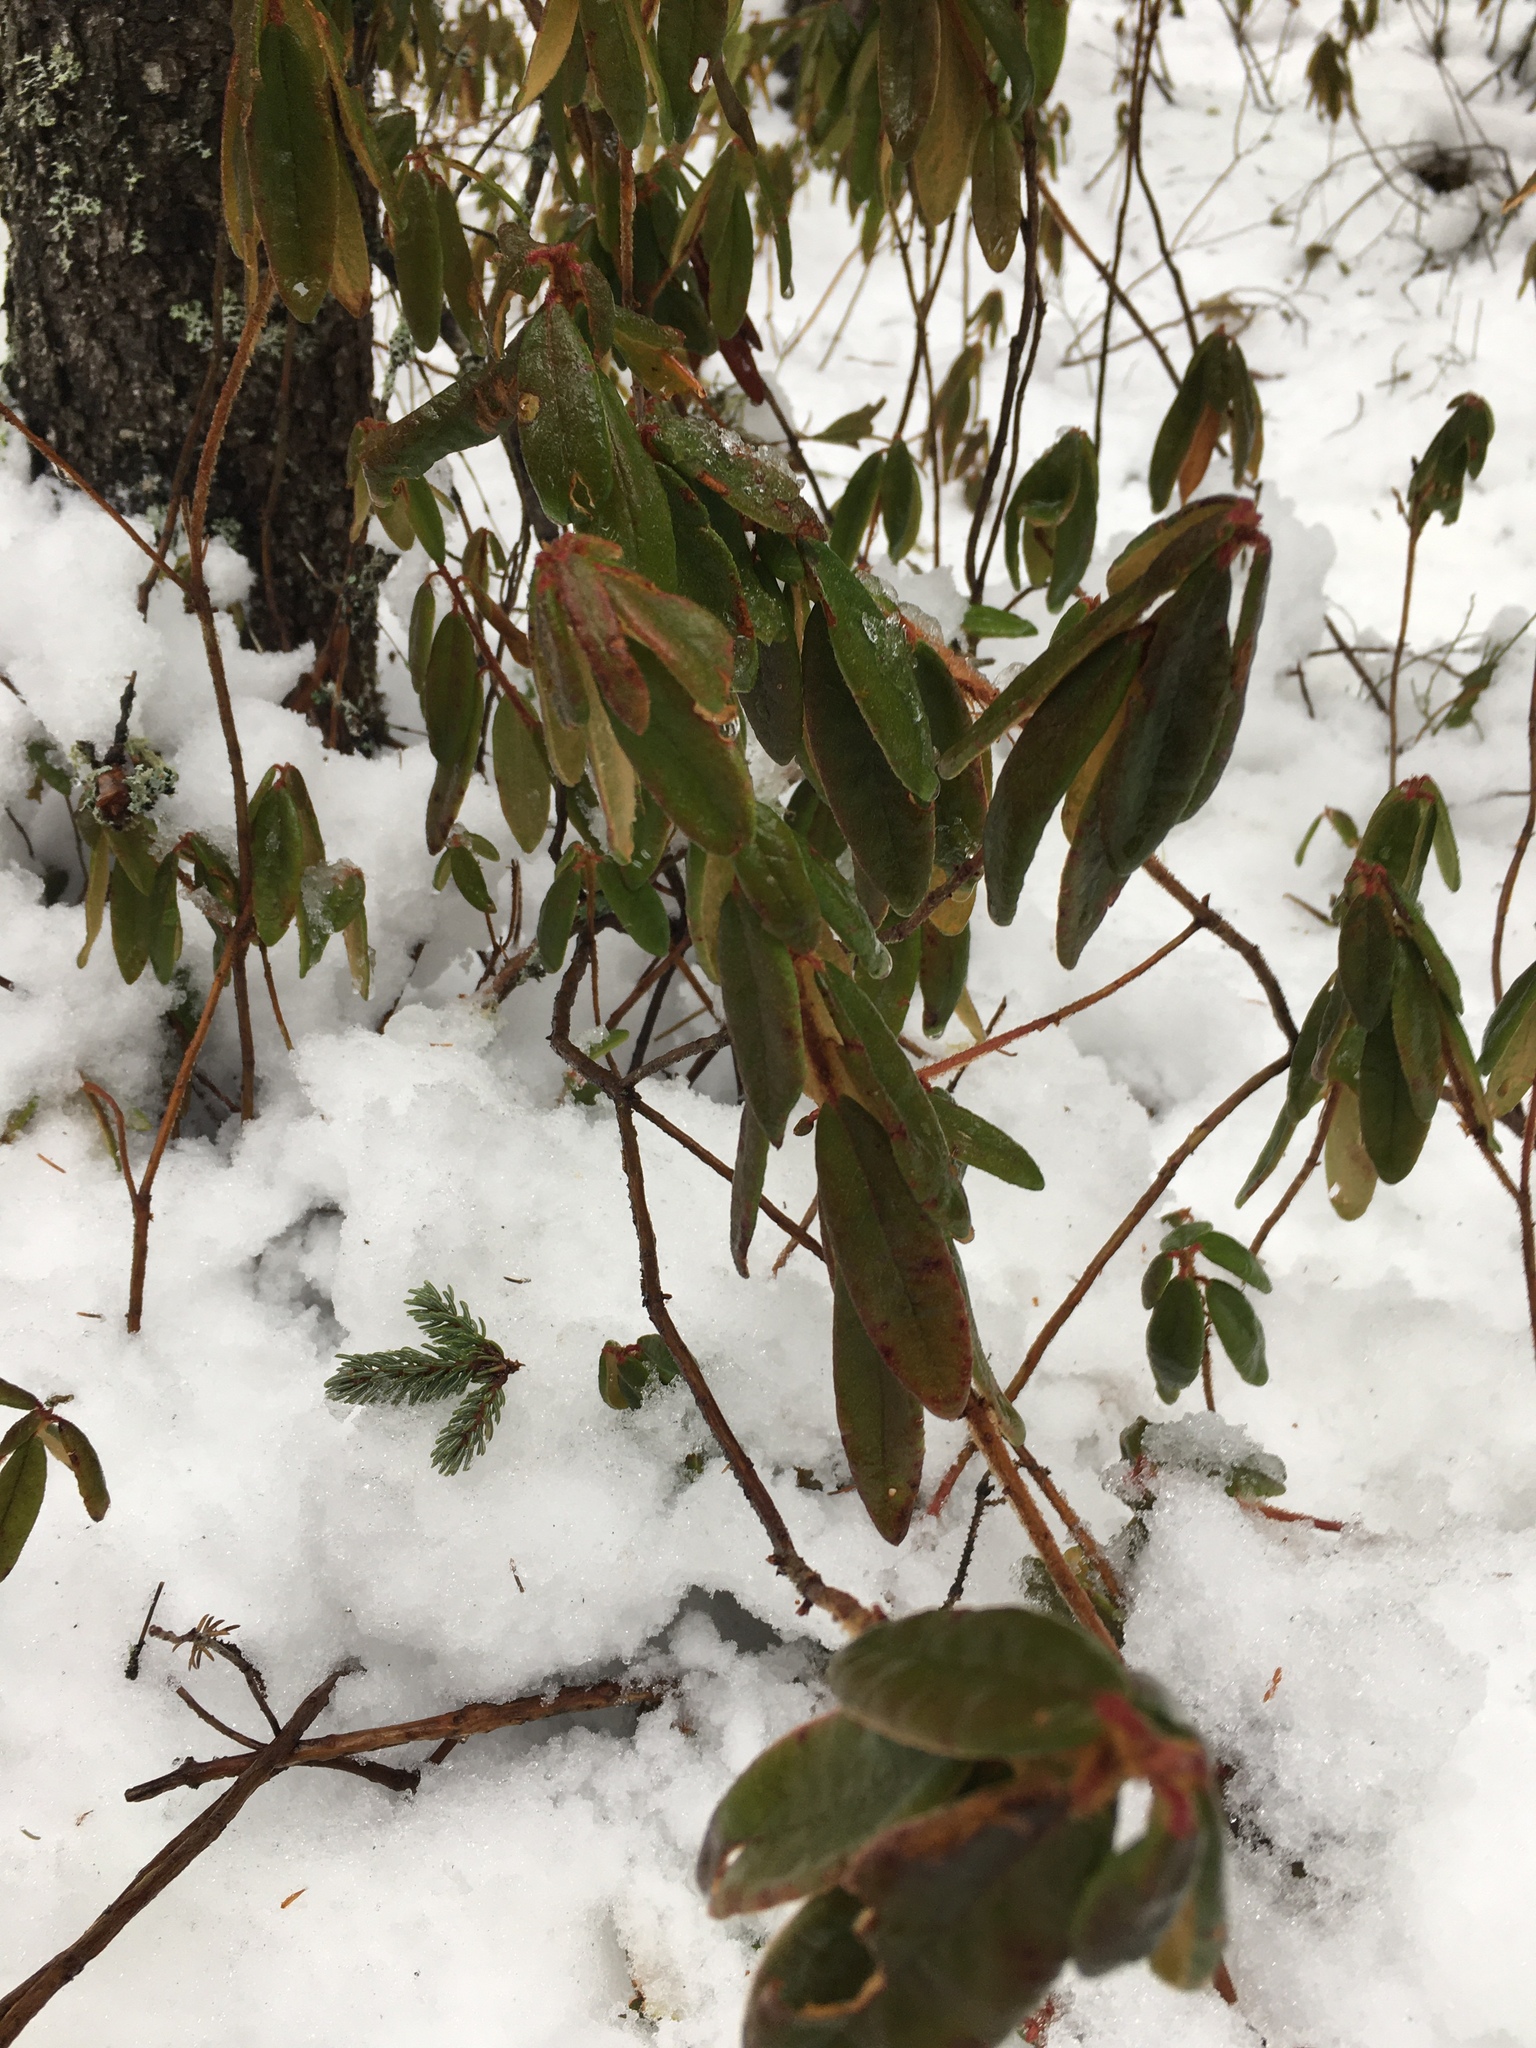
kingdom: Plantae
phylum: Tracheophyta
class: Magnoliopsida
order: Ericales
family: Ericaceae
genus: Rhododendron
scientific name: Rhododendron groenlandicum
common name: Bog labrador tea
